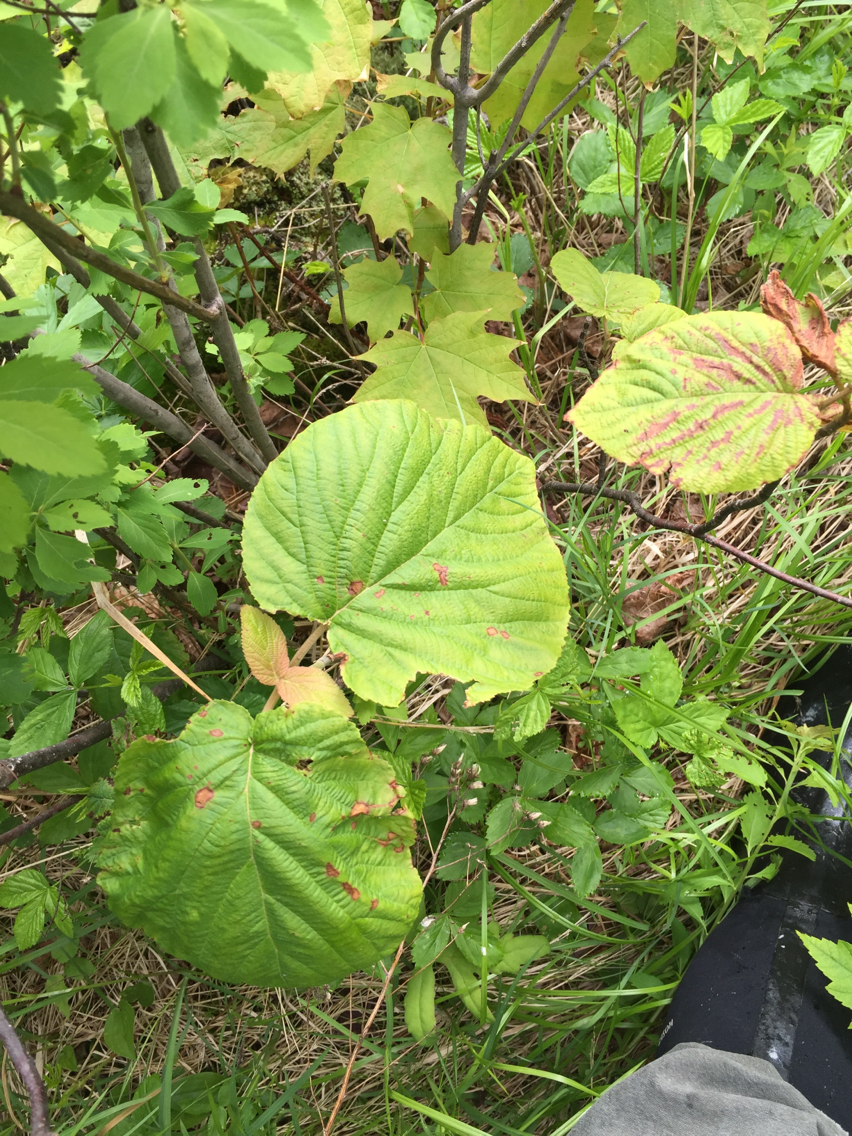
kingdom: Plantae
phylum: Tracheophyta
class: Magnoliopsida
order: Sapindales
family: Sapindaceae
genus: Acer
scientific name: Acer saccharum
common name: Sugar maple
